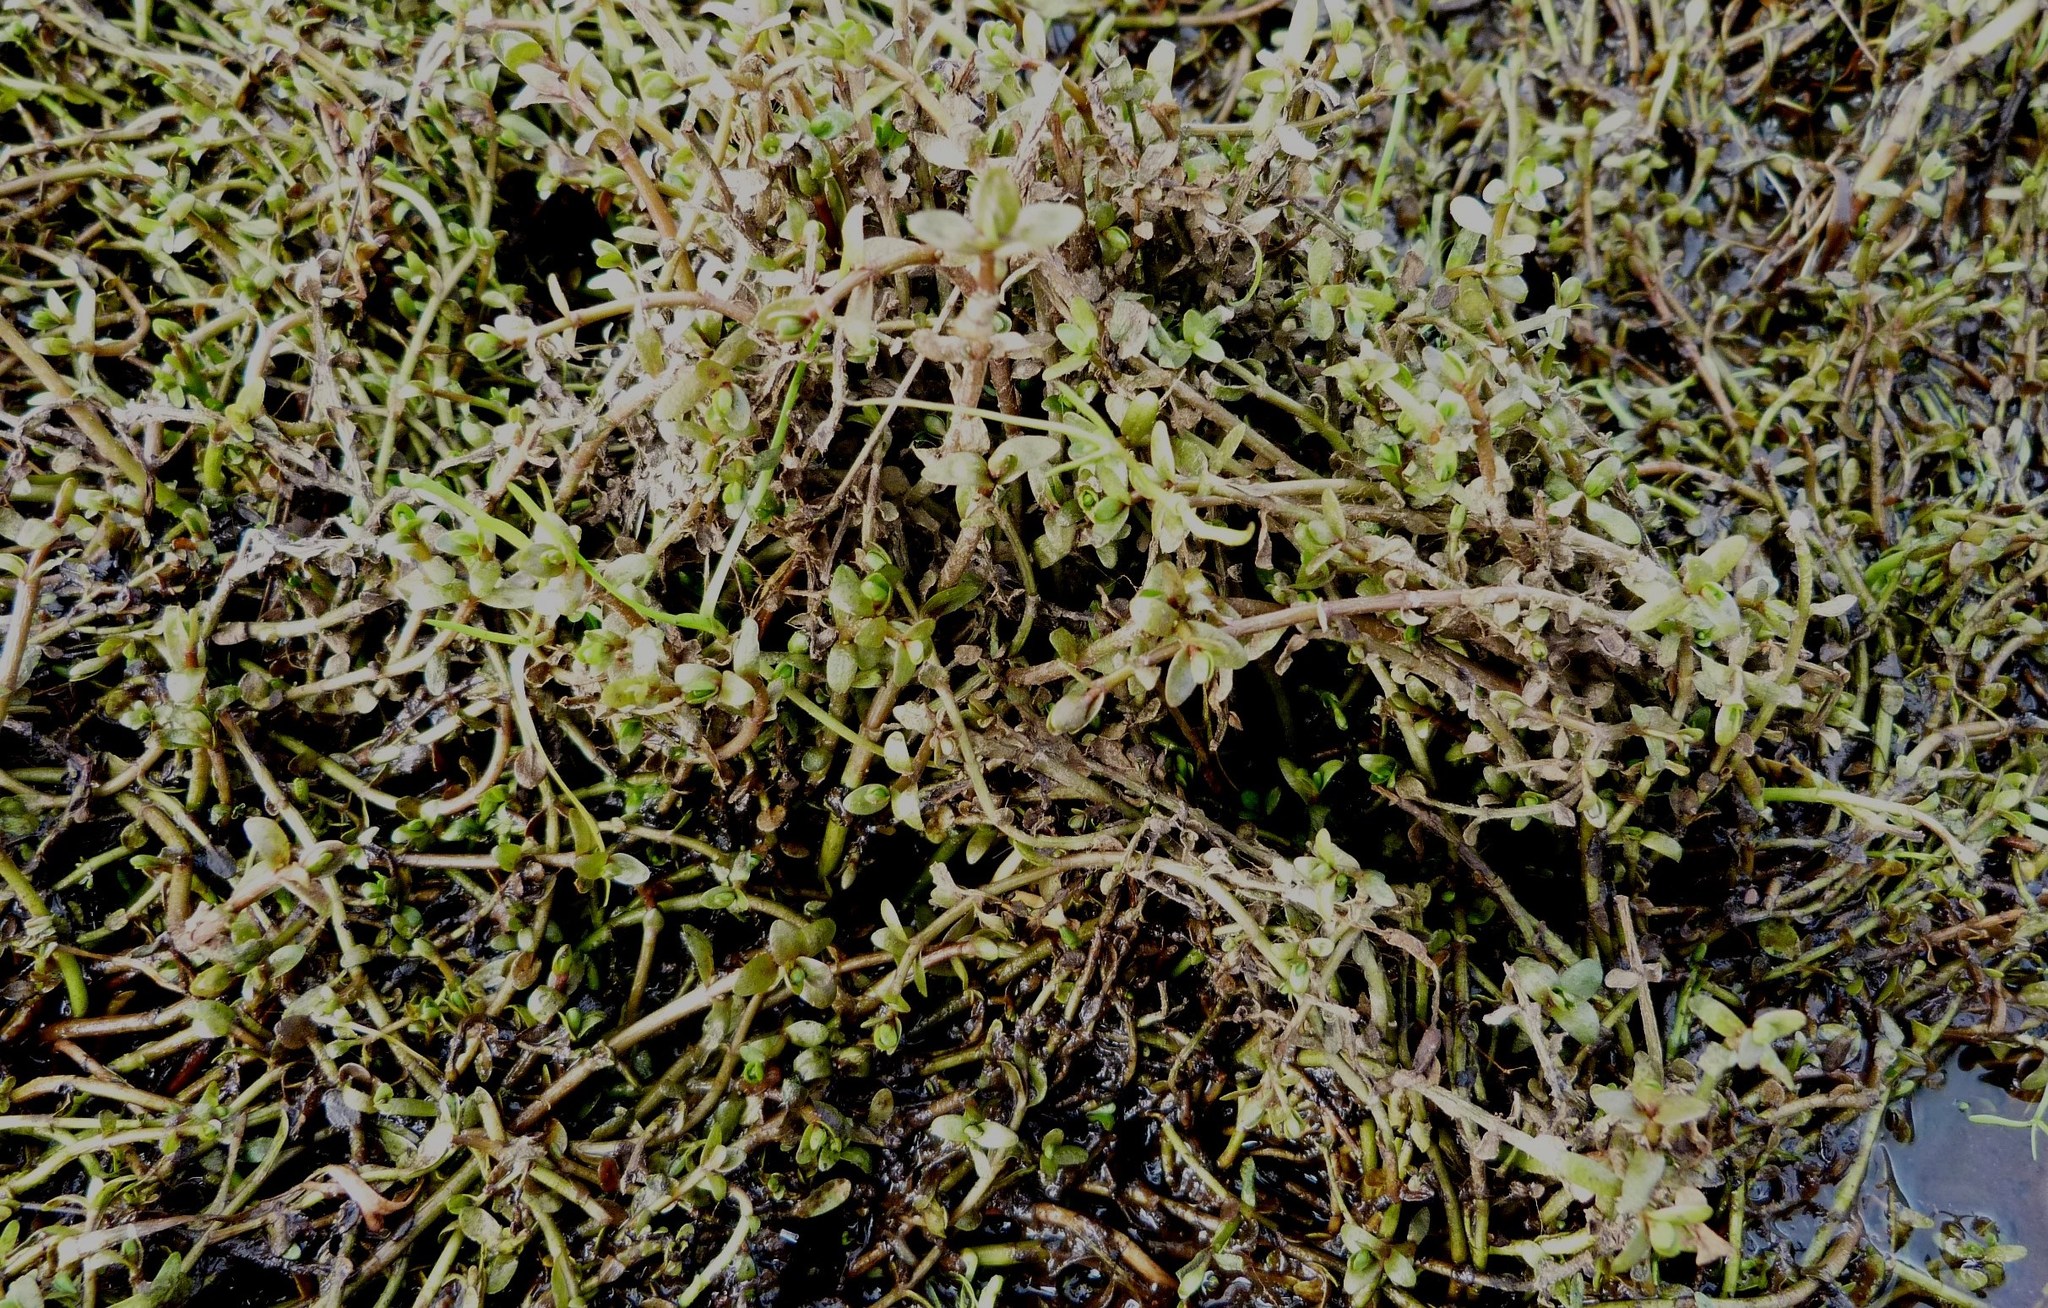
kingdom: Plantae
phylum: Tracheophyta
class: Magnoliopsida
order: Lamiales
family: Phrymaceae
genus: Thyridia
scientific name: Thyridia repens
